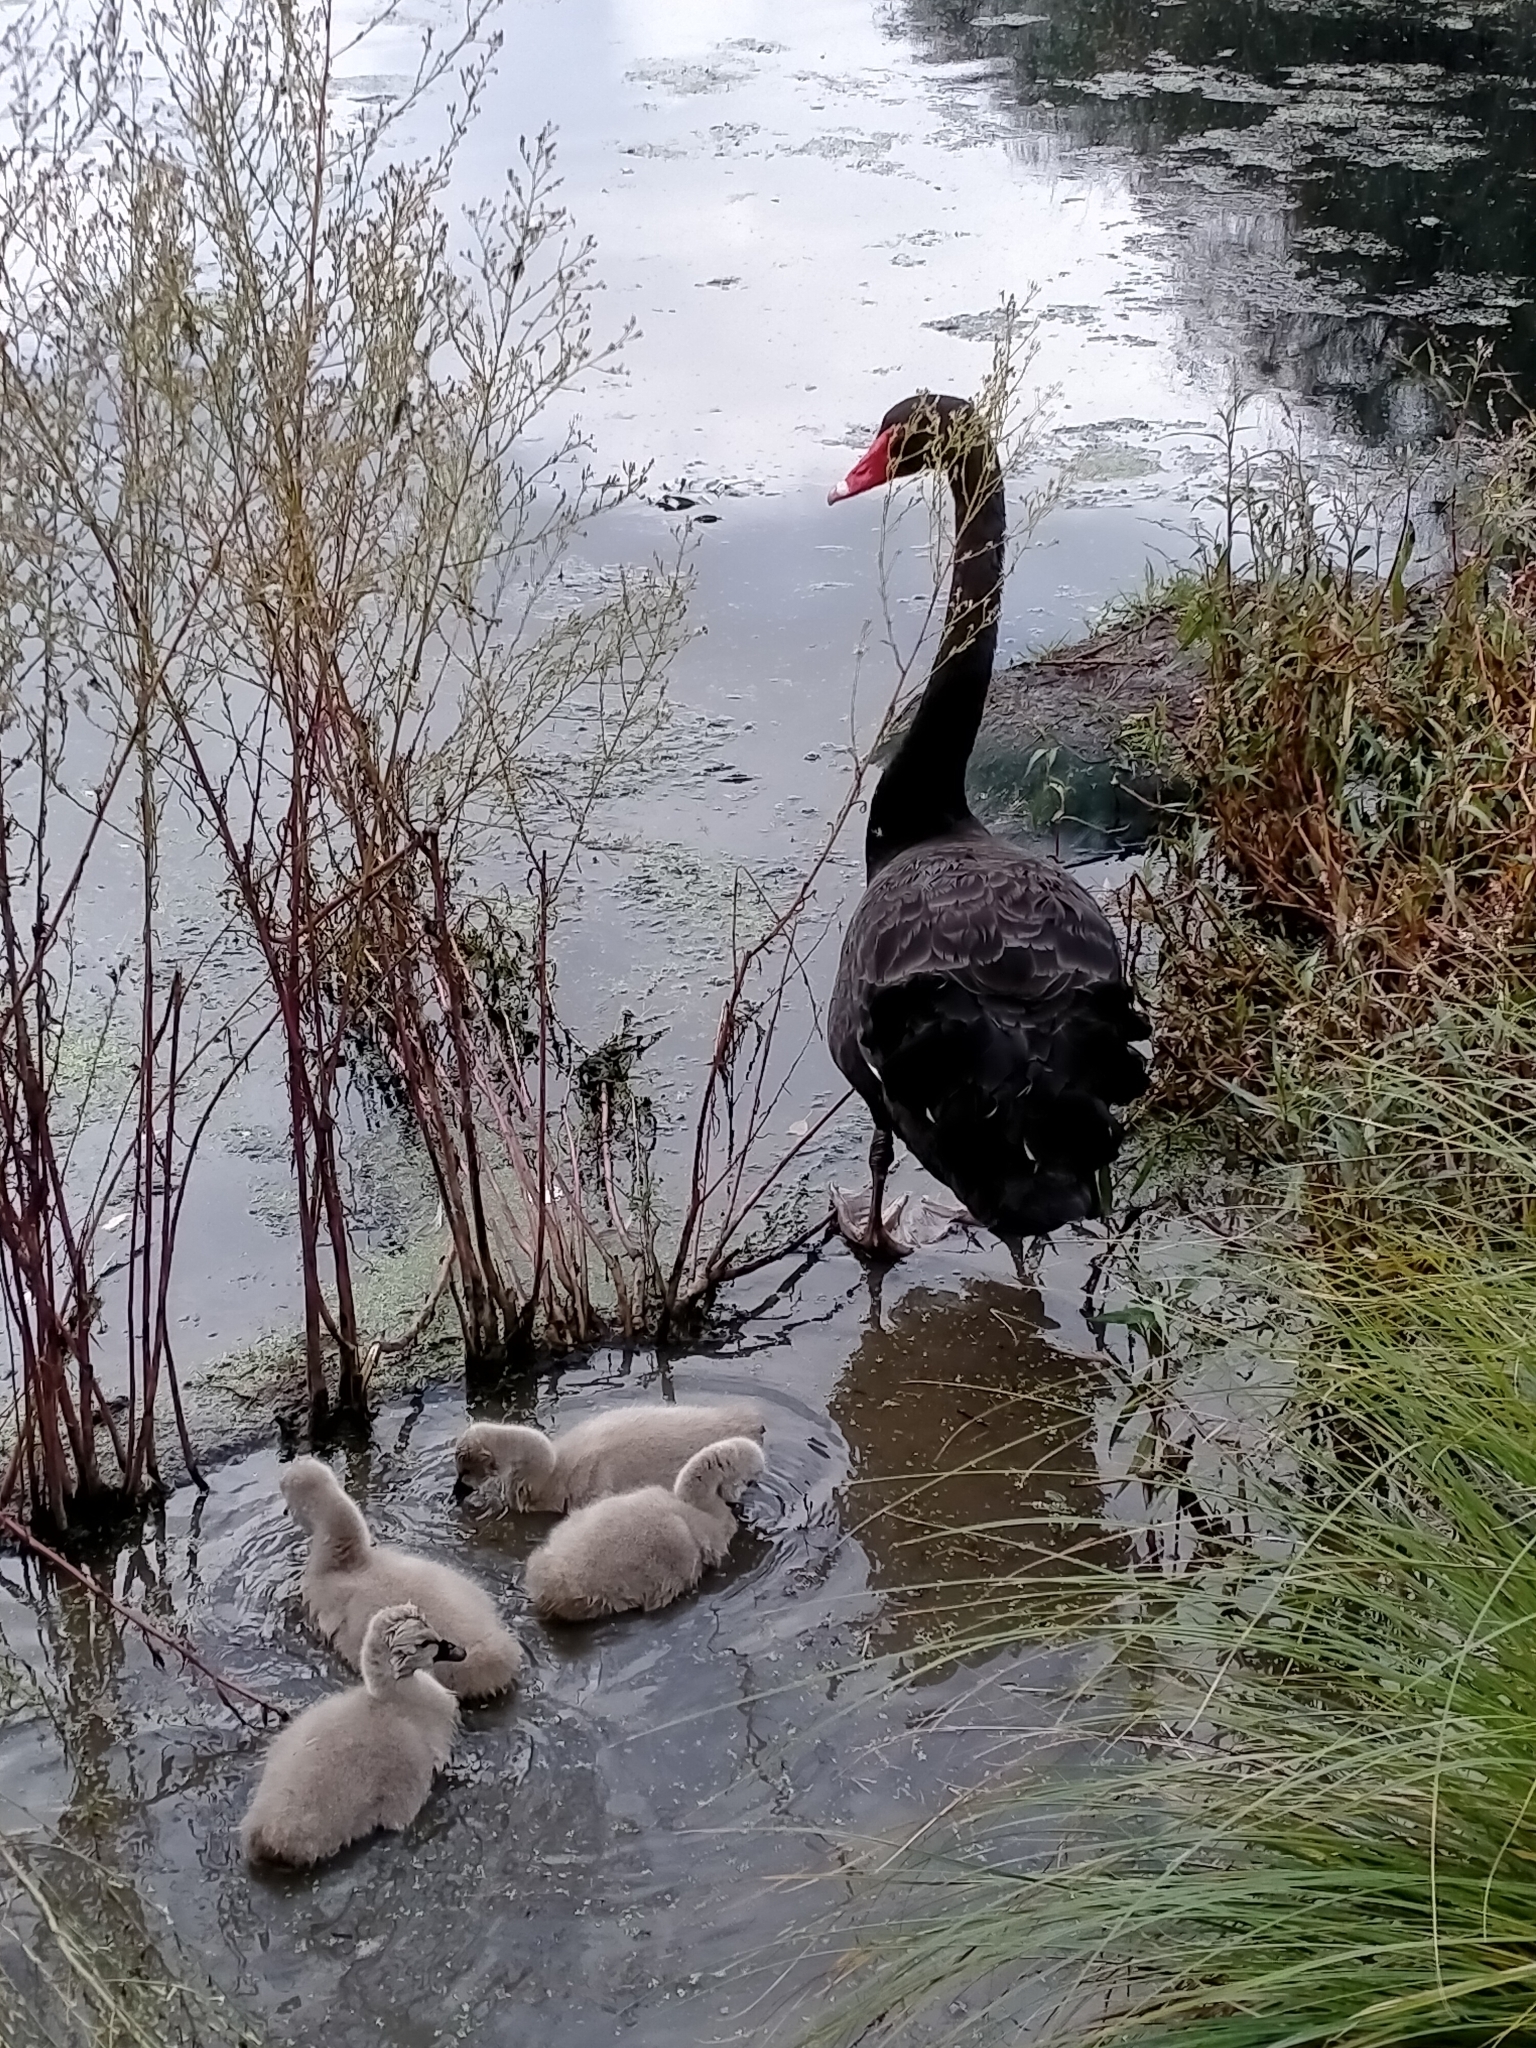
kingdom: Animalia
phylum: Chordata
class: Aves
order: Anseriformes
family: Anatidae
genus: Cygnus
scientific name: Cygnus atratus
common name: Black swan
